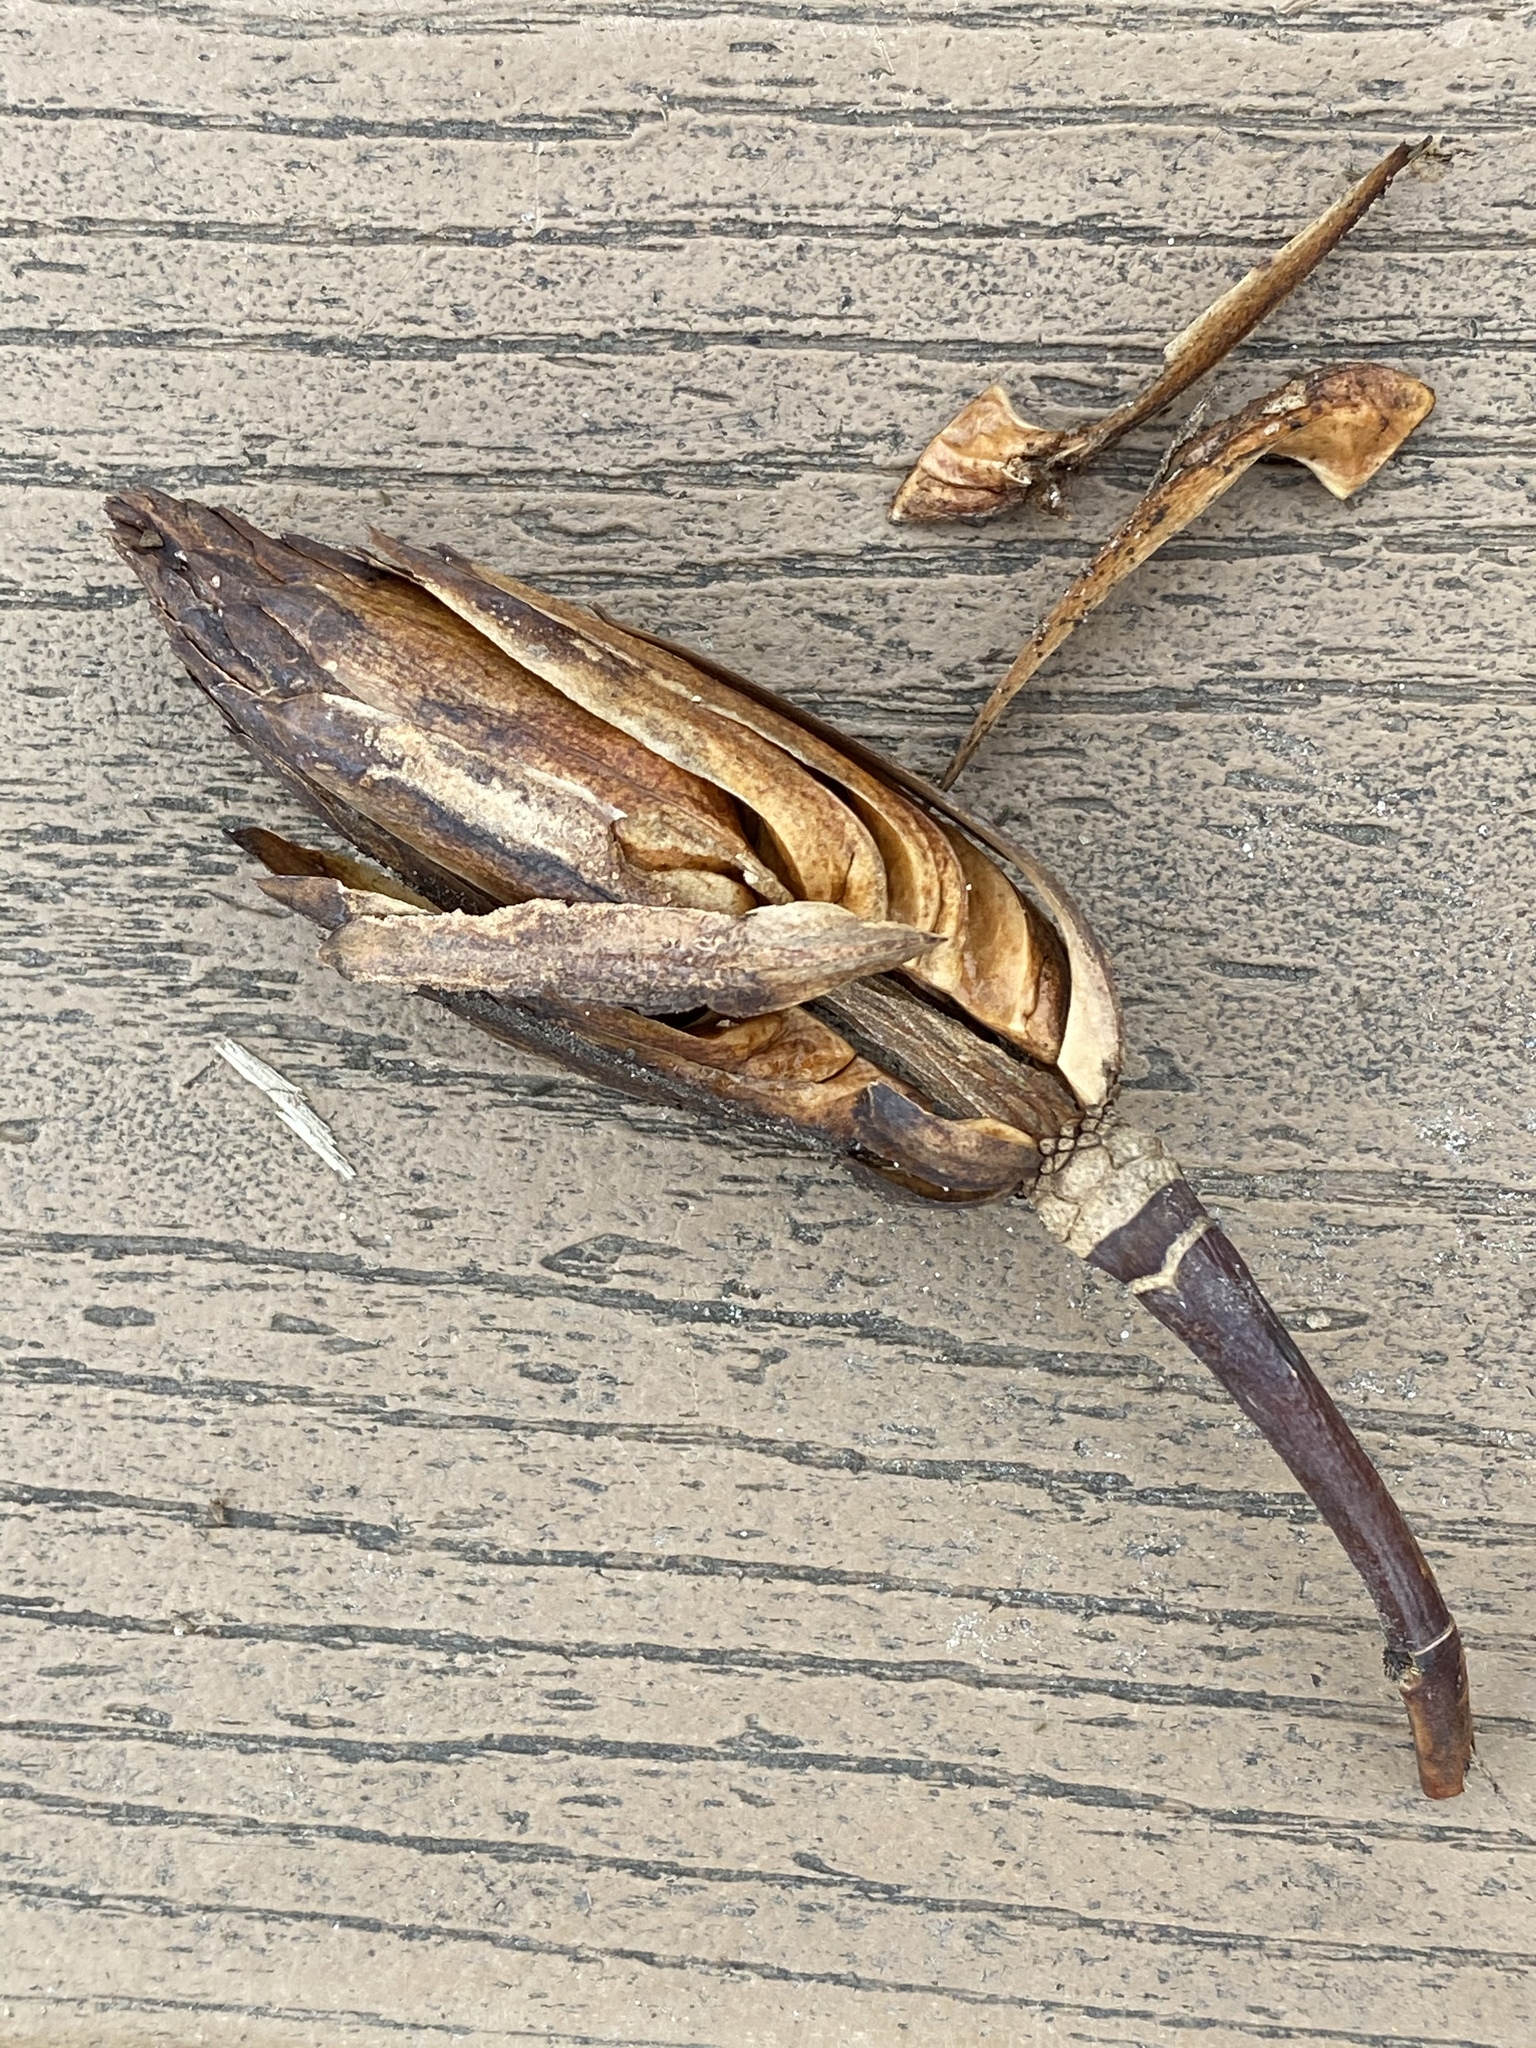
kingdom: Plantae
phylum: Tracheophyta
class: Magnoliopsida
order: Magnoliales
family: Magnoliaceae
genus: Liriodendron
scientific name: Liriodendron tulipifera
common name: Tulip tree
